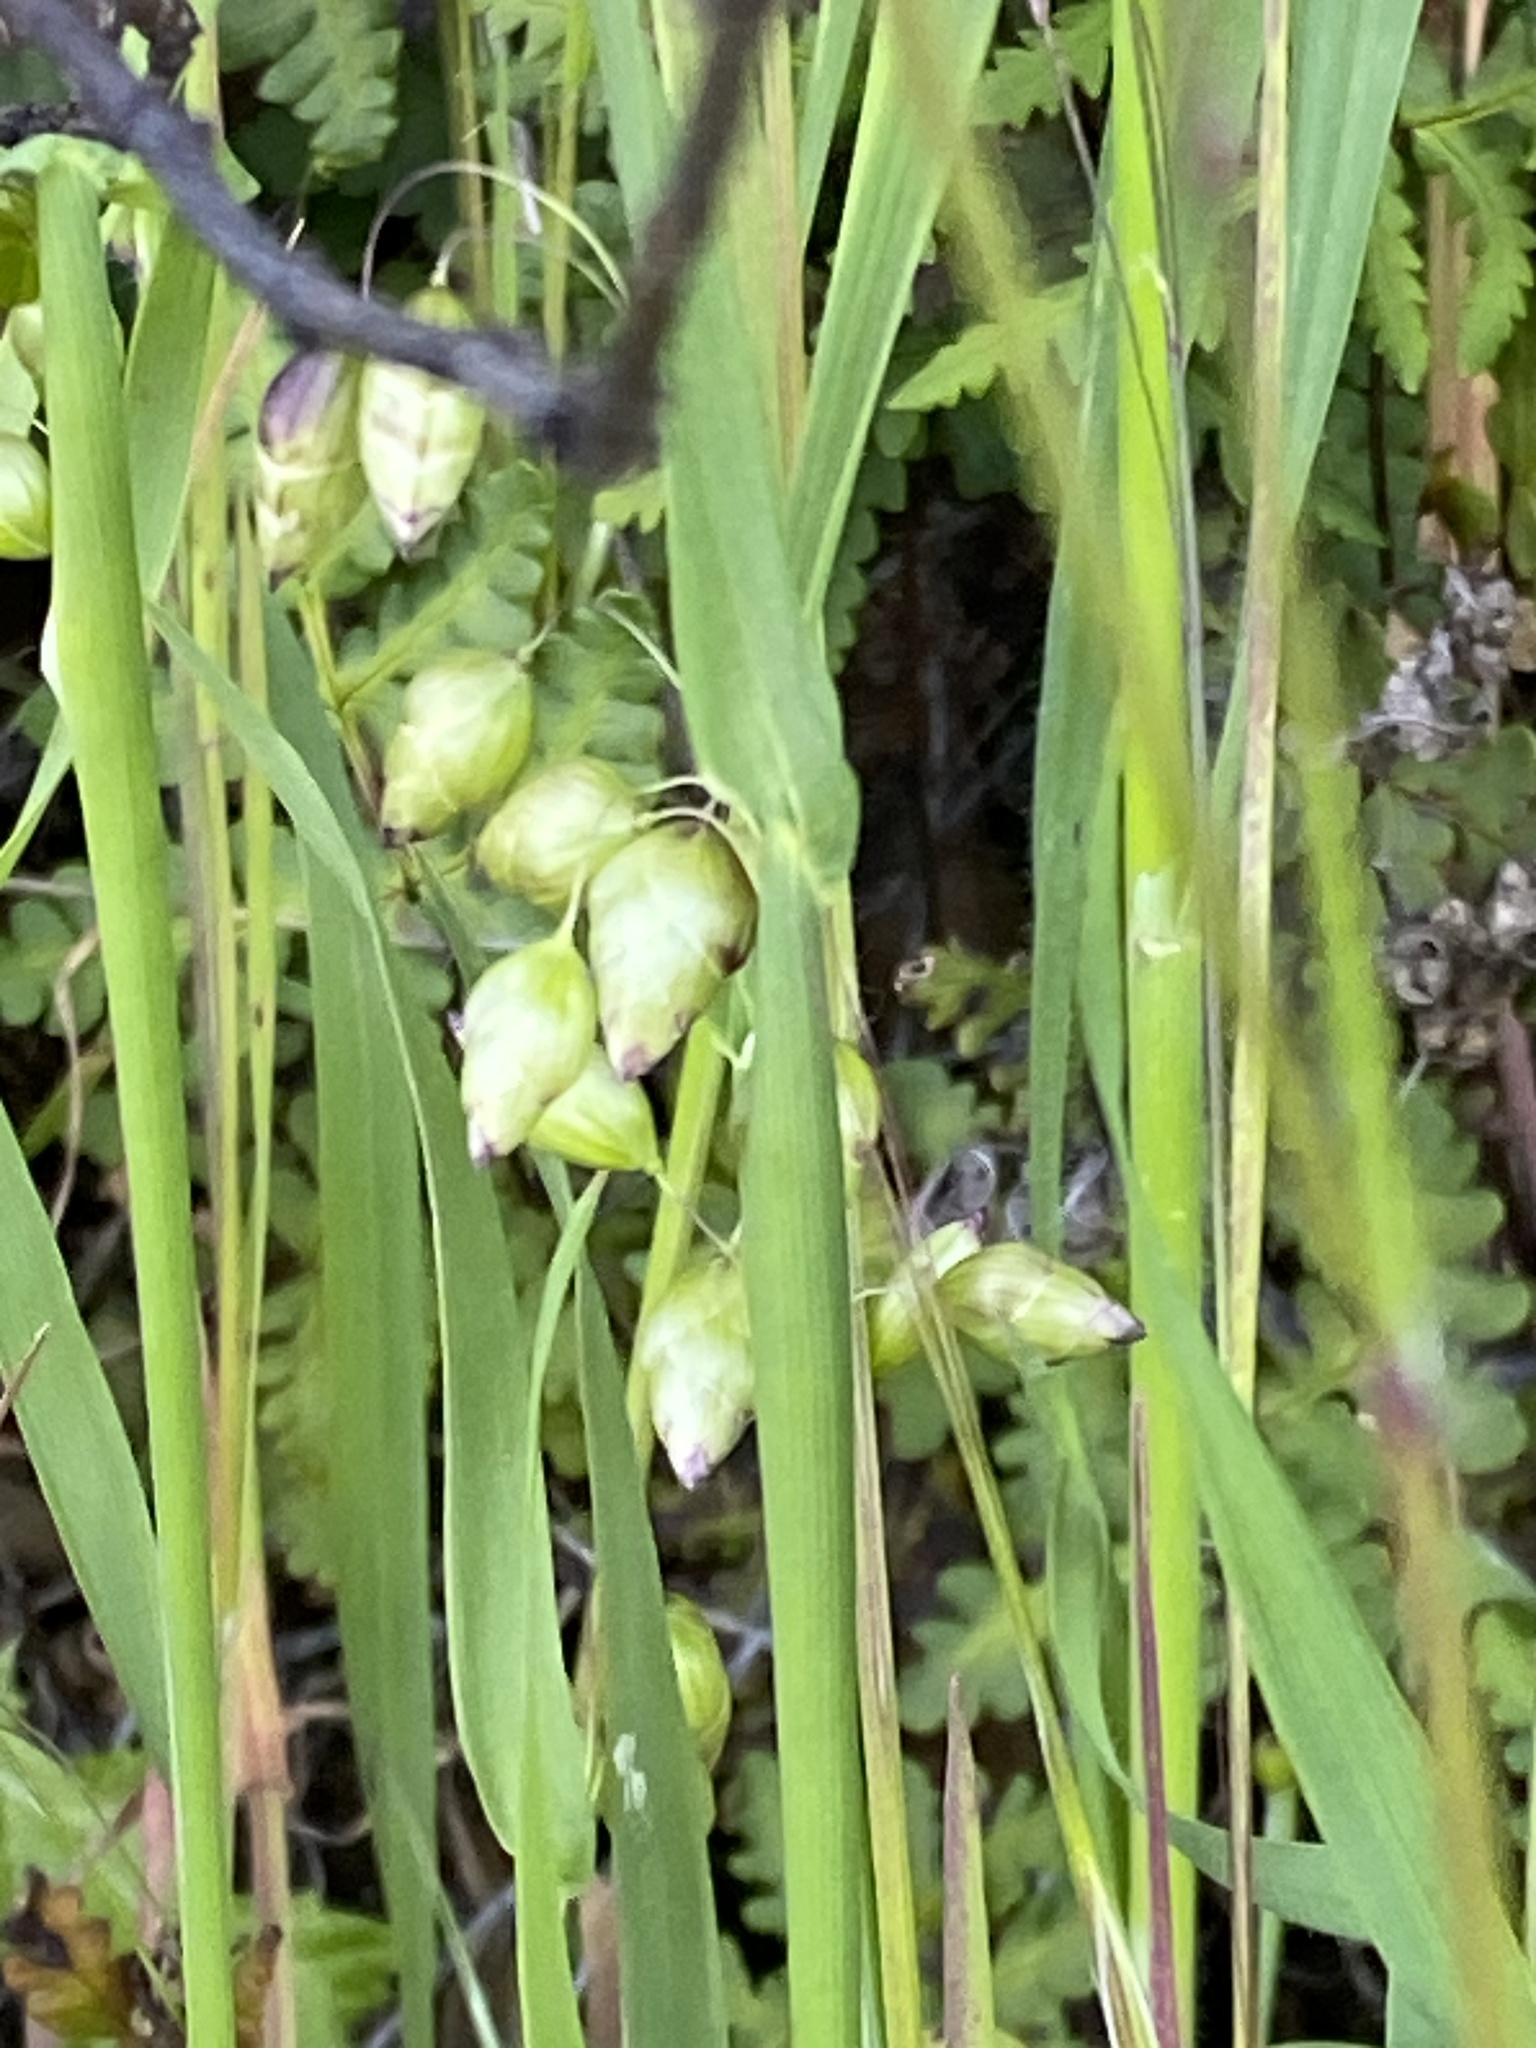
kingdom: Plantae
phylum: Tracheophyta
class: Liliopsida
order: Poales
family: Poaceae
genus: Briza
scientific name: Briza maxima
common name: Big quakinggrass
